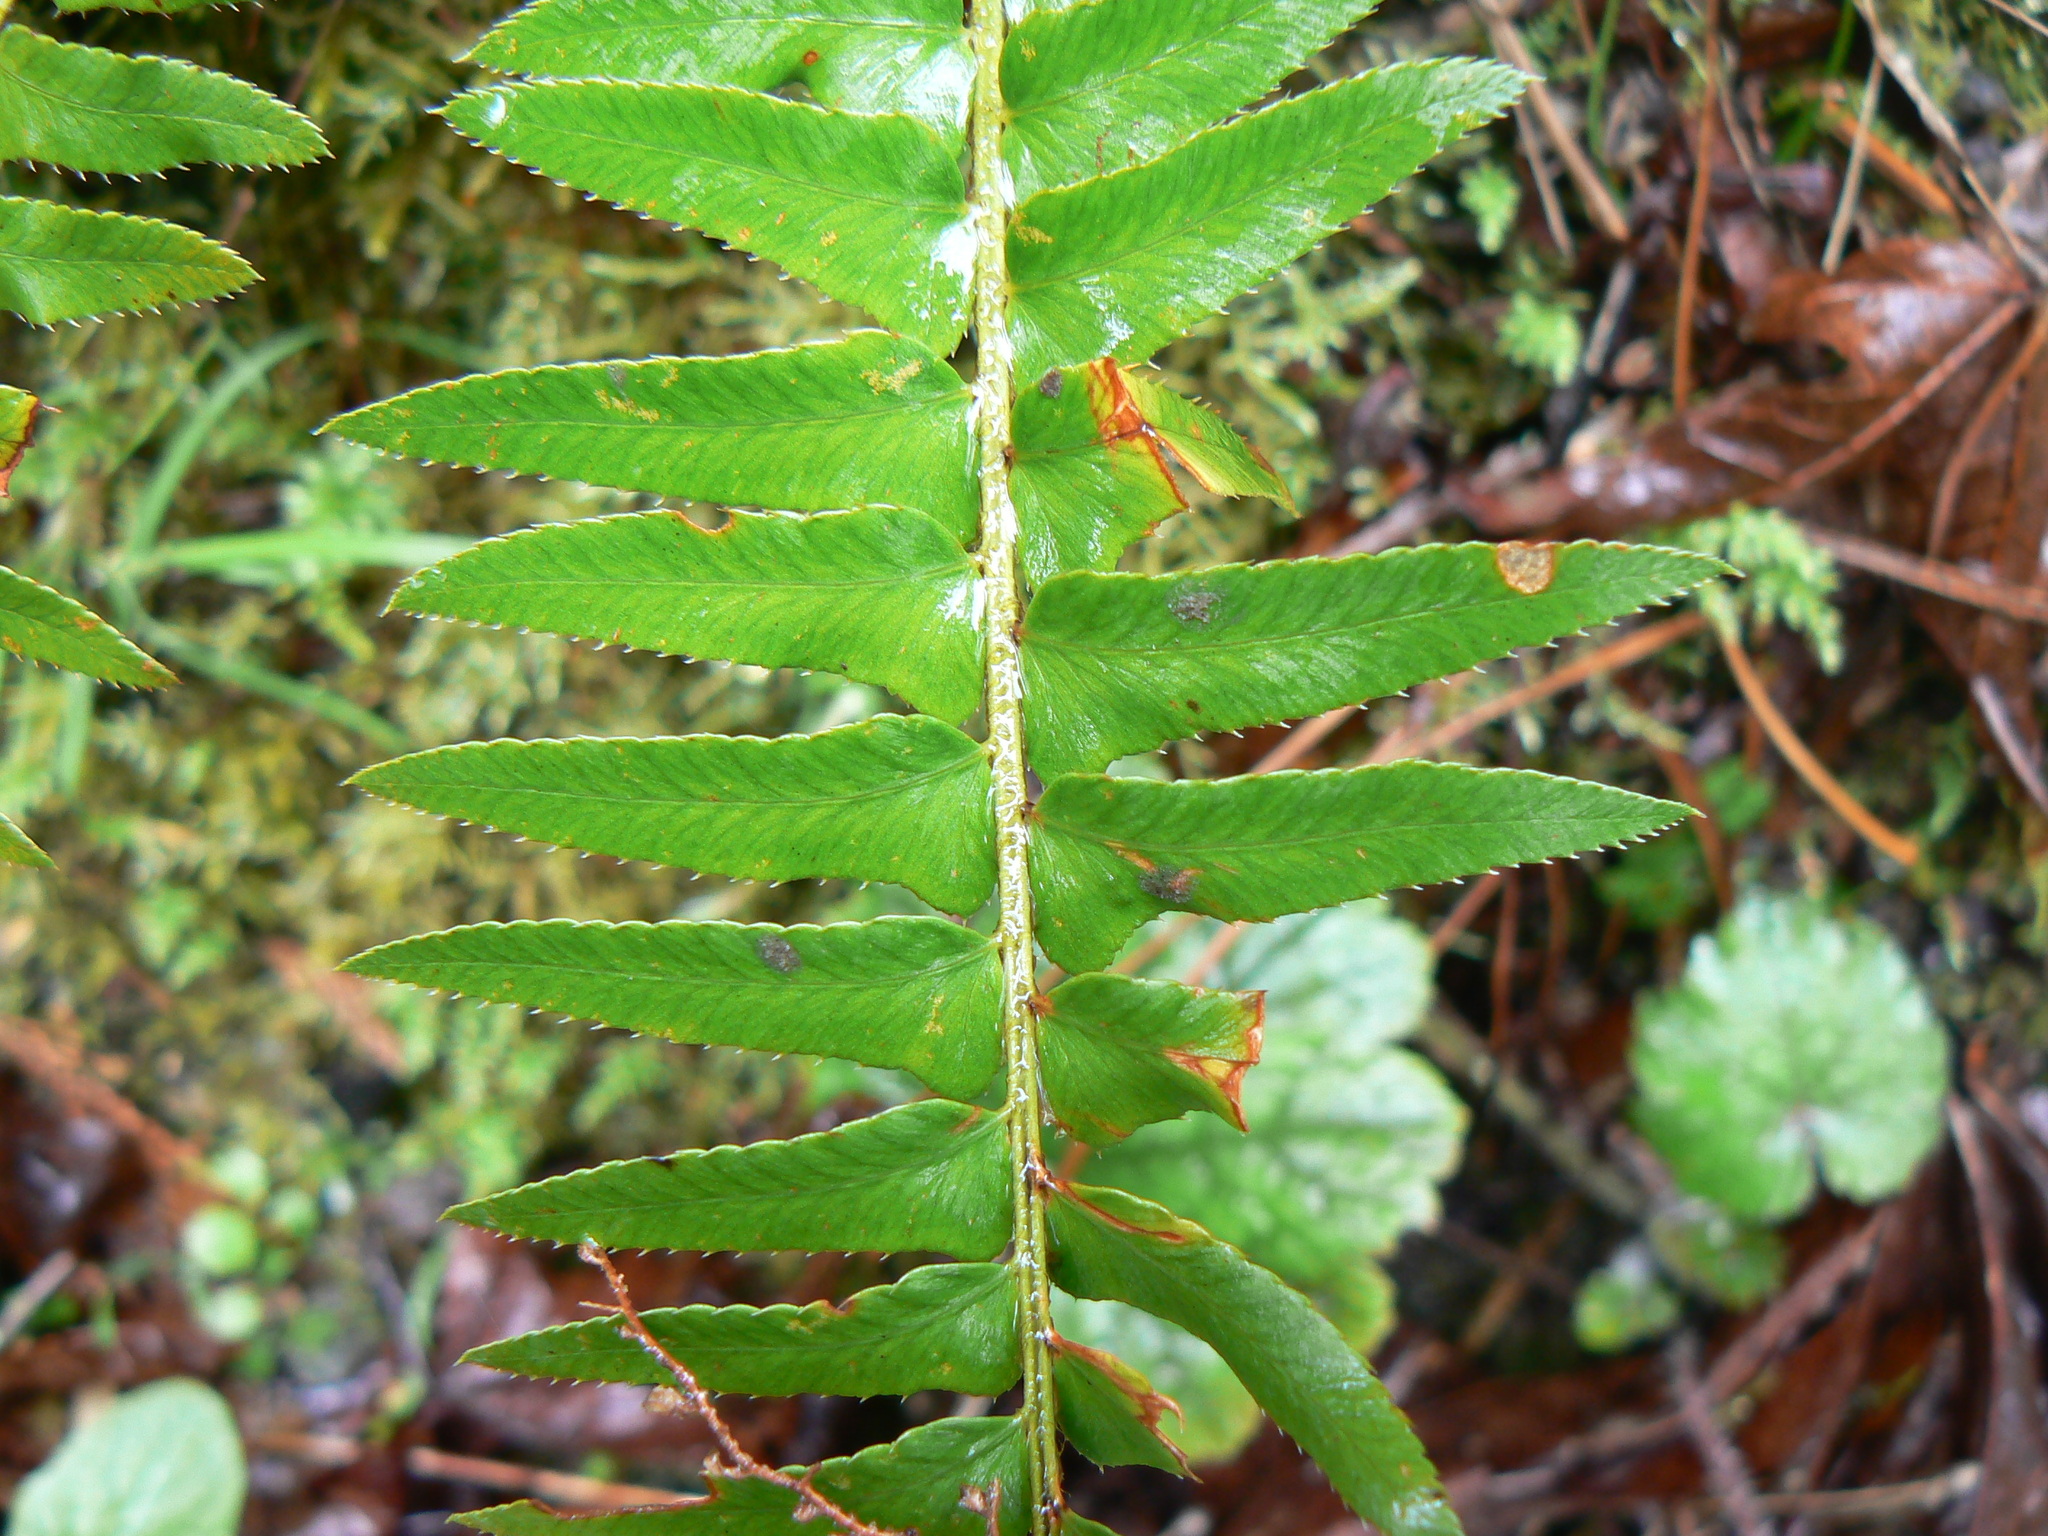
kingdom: Plantae
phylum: Tracheophyta
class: Polypodiopsida
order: Polypodiales
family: Dryopteridaceae
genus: Polystichum
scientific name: Polystichum munitum
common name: Western sword-fern
